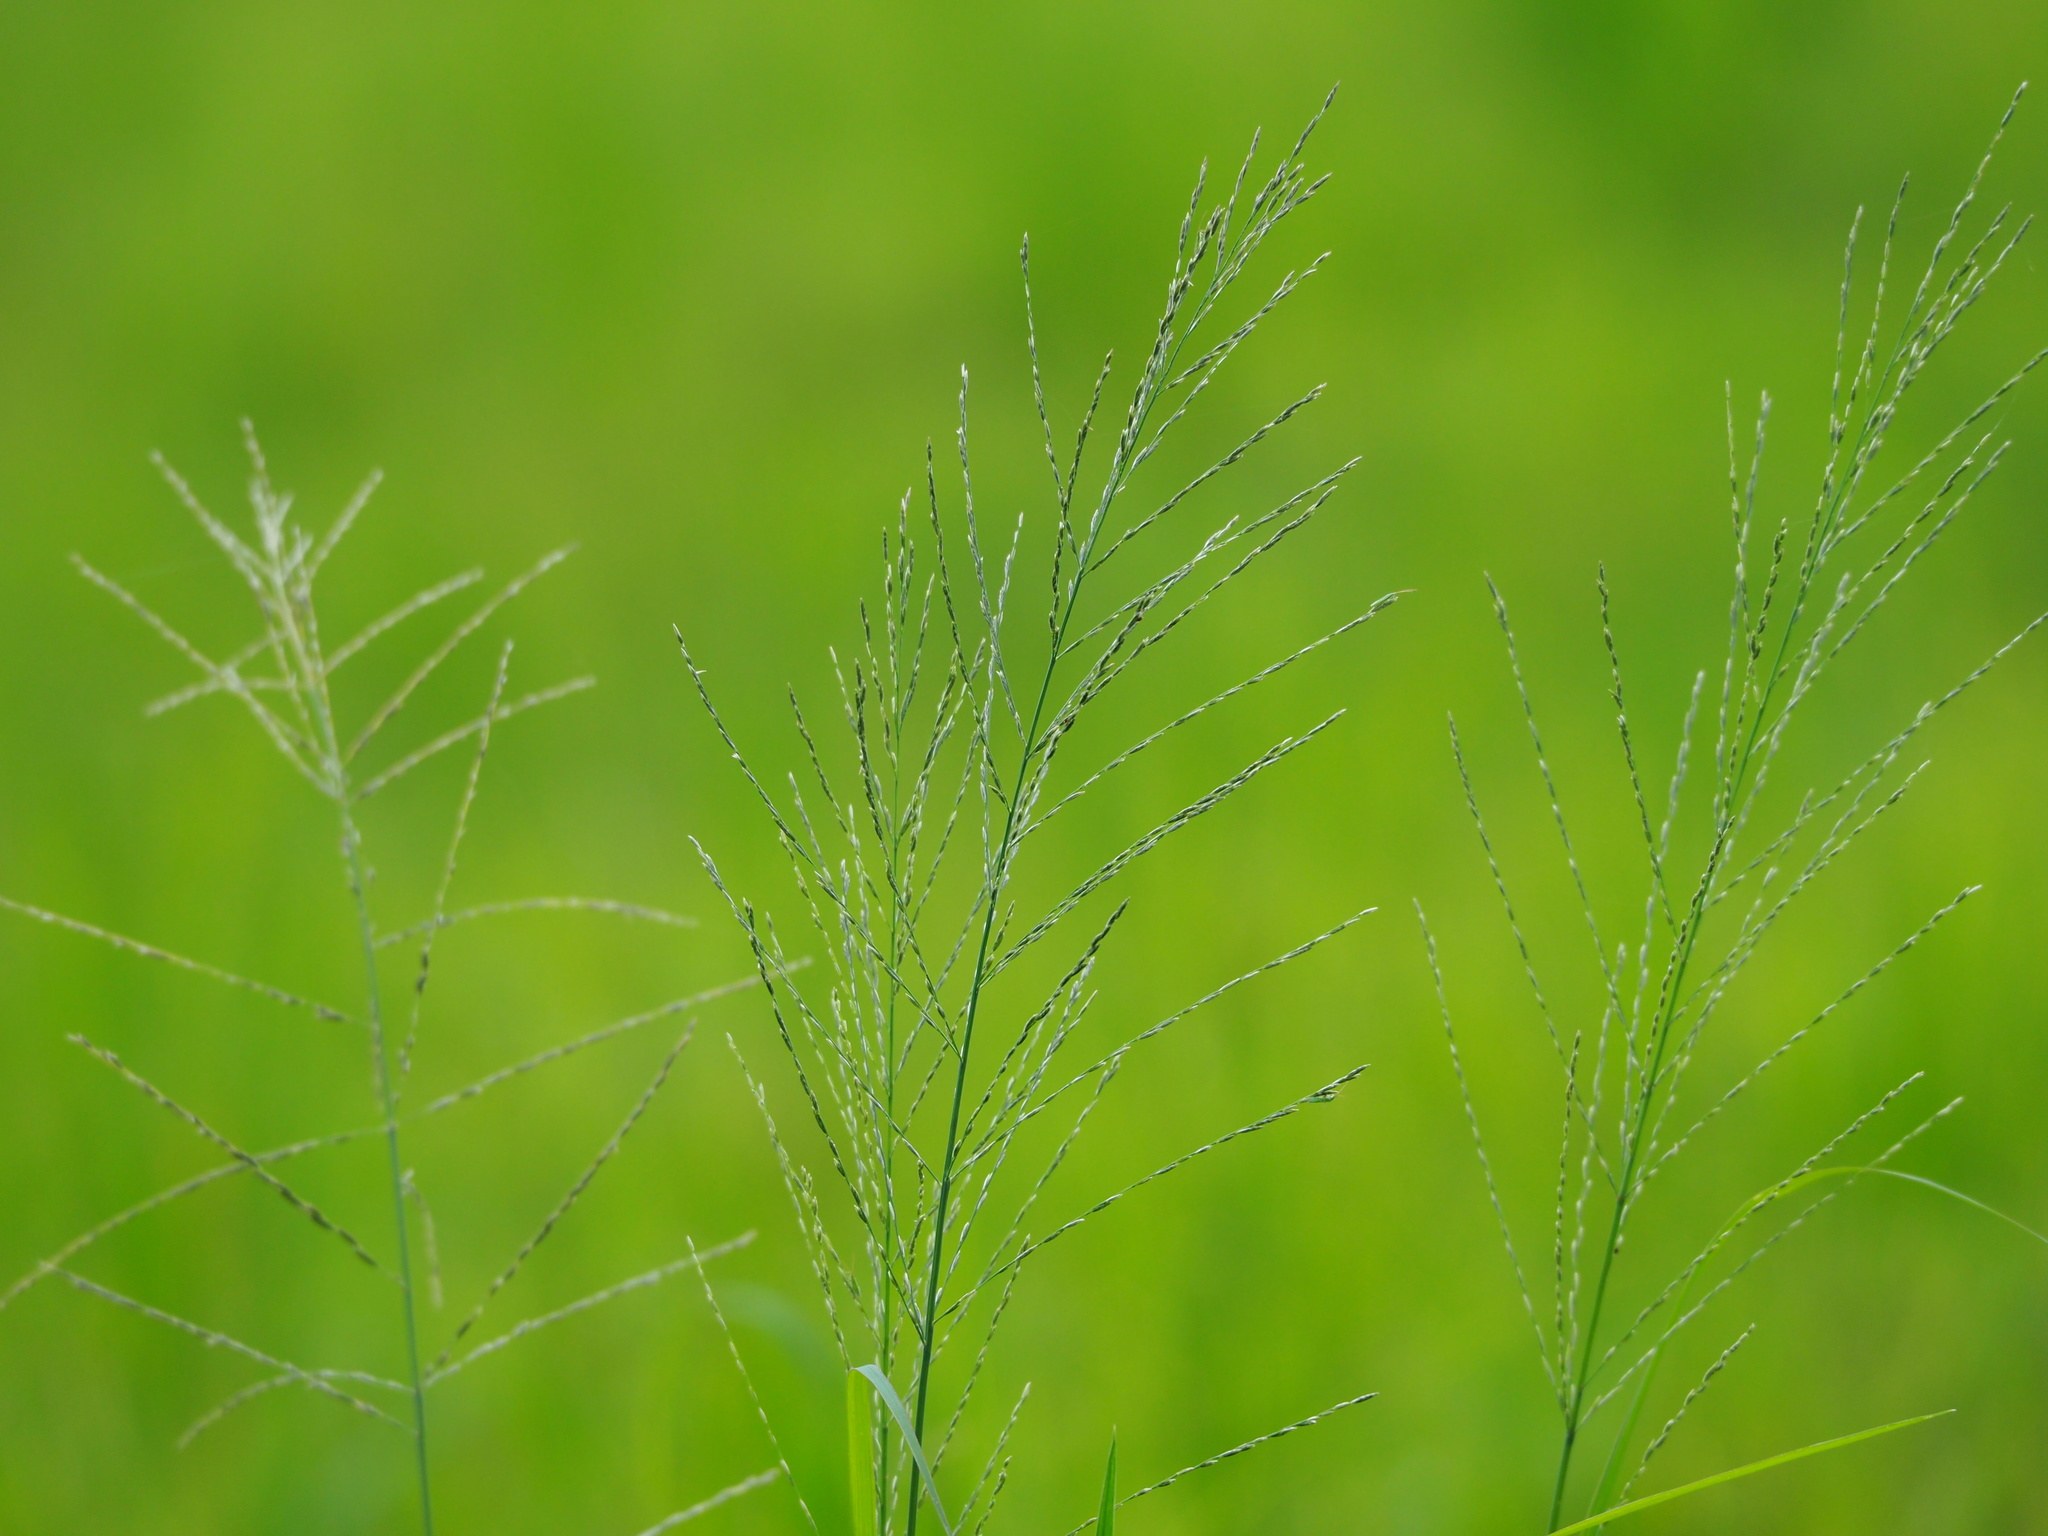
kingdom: Plantae
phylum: Tracheophyta
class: Liliopsida
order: Poales
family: Poaceae
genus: Diplachne
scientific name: Diplachne fusca
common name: Brown beetle grass
